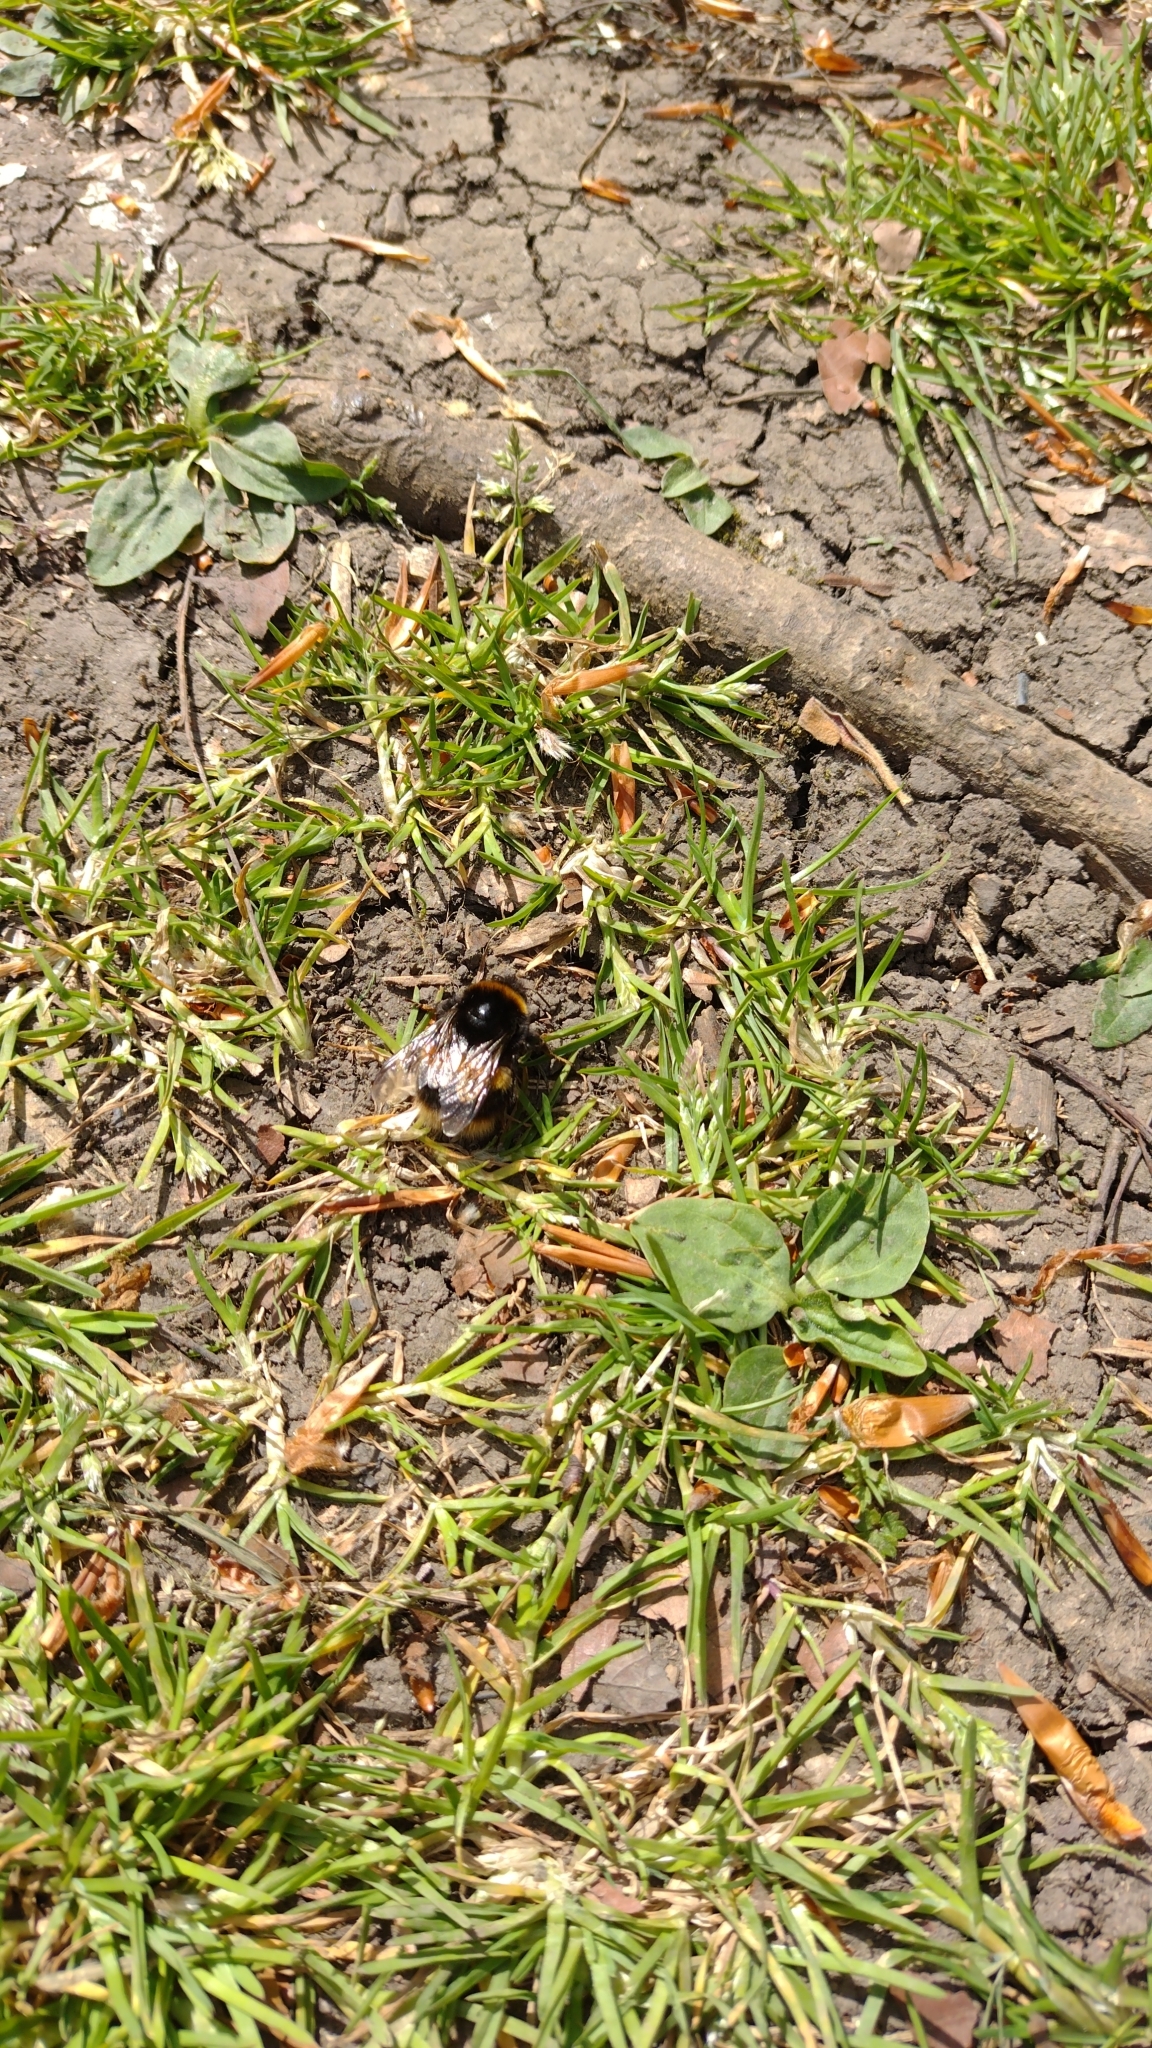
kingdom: Animalia
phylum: Arthropoda
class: Insecta
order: Hymenoptera
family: Apidae
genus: Bombus
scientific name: Bombus terrestris
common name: Buff-tailed bumblebee
